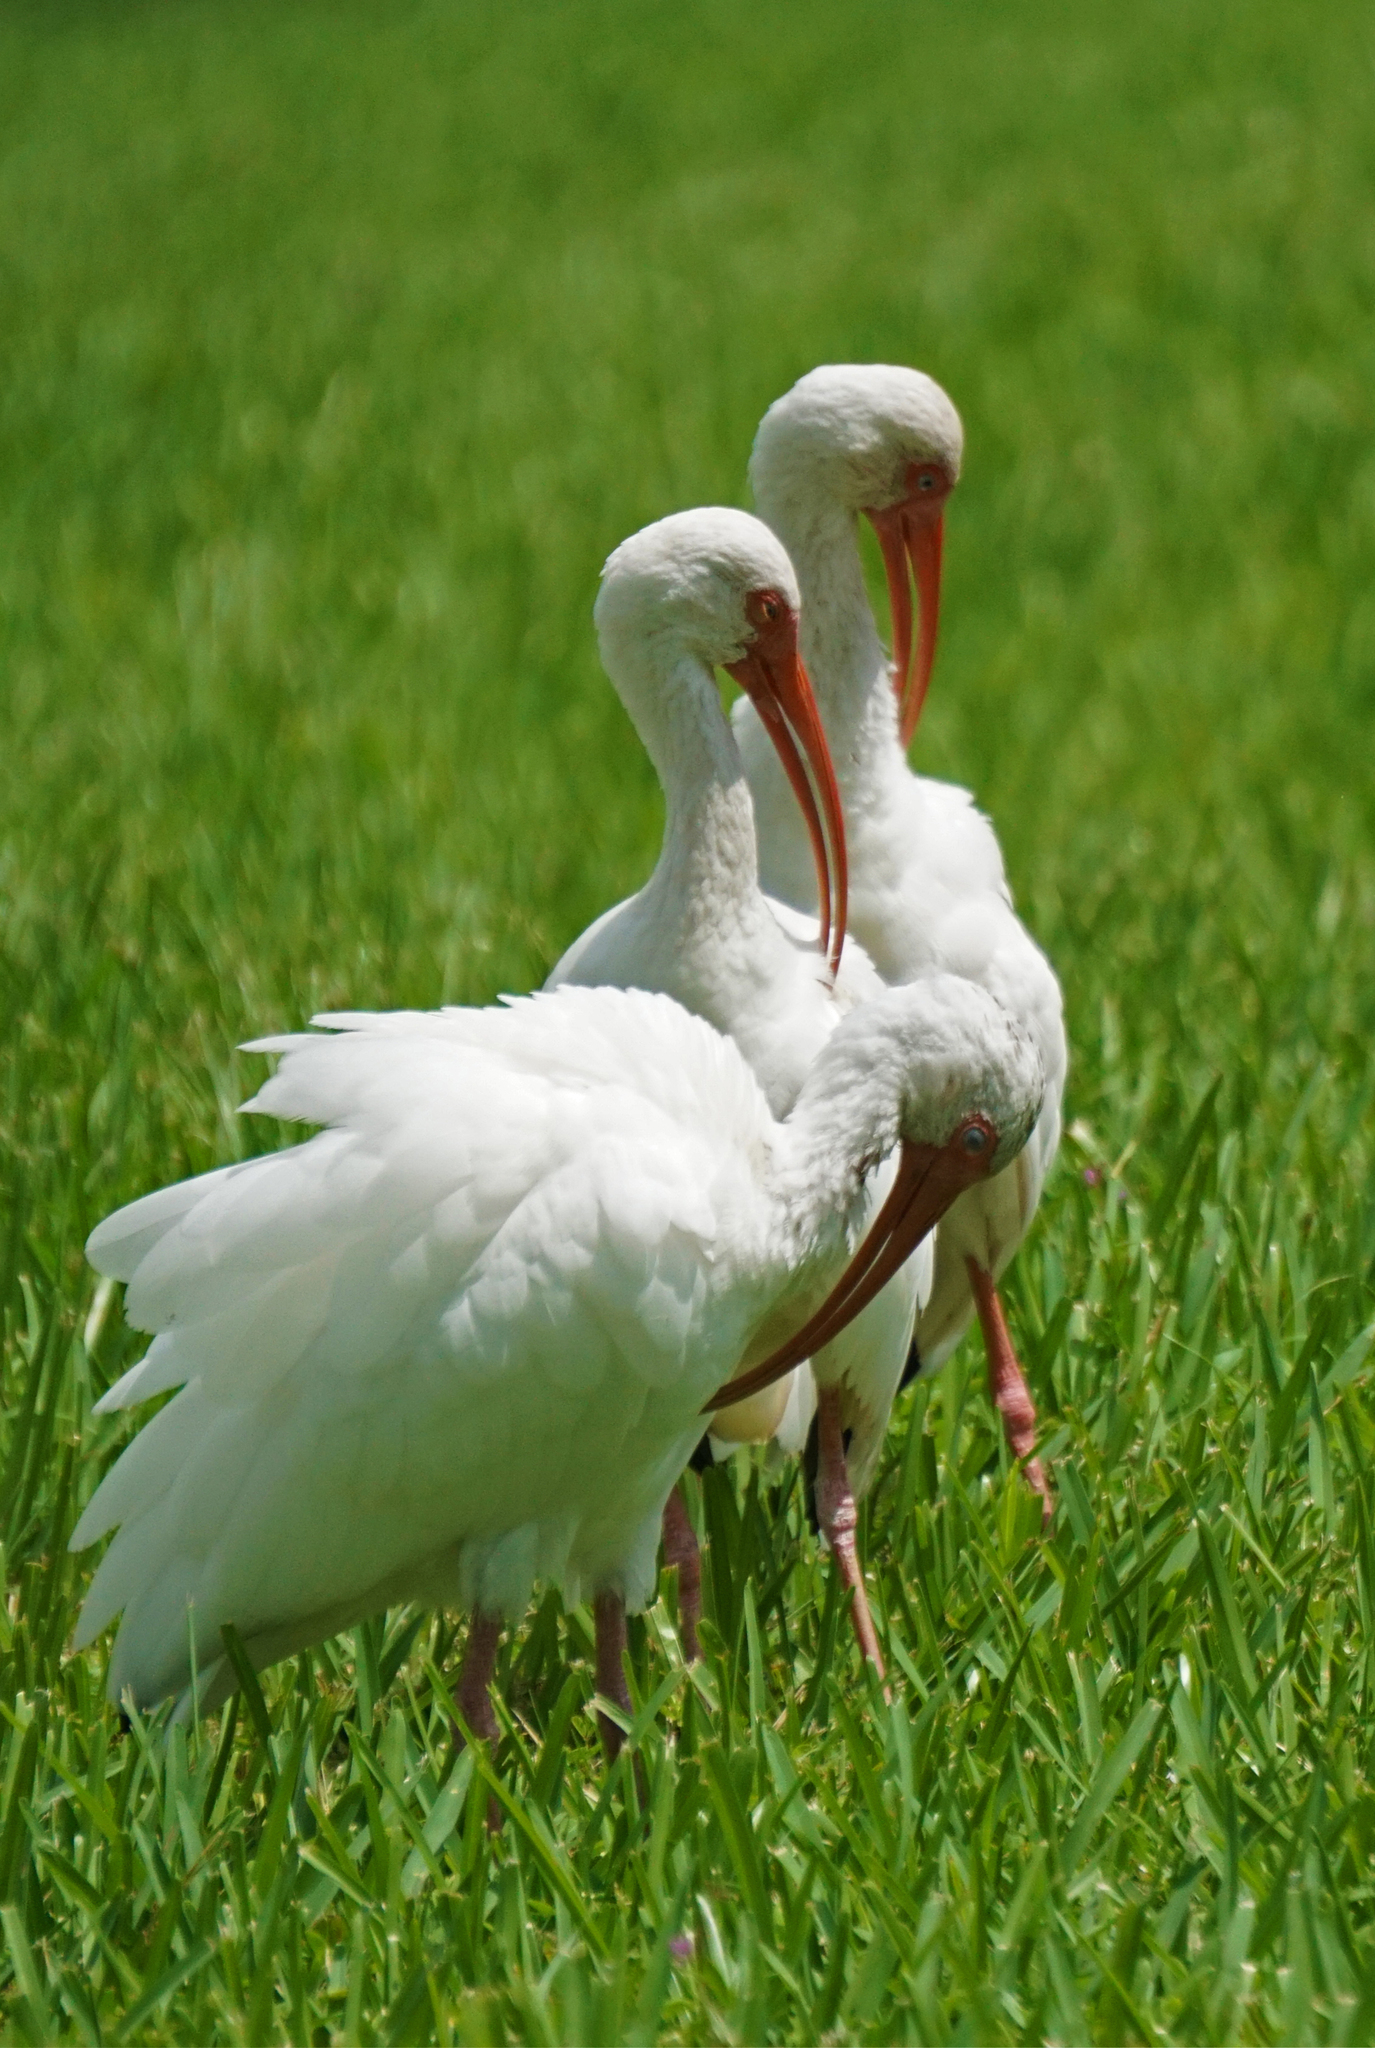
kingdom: Animalia
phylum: Chordata
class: Aves
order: Pelecaniformes
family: Threskiornithidae
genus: Eudocimus
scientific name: Eudocimus albus
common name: White ibis
